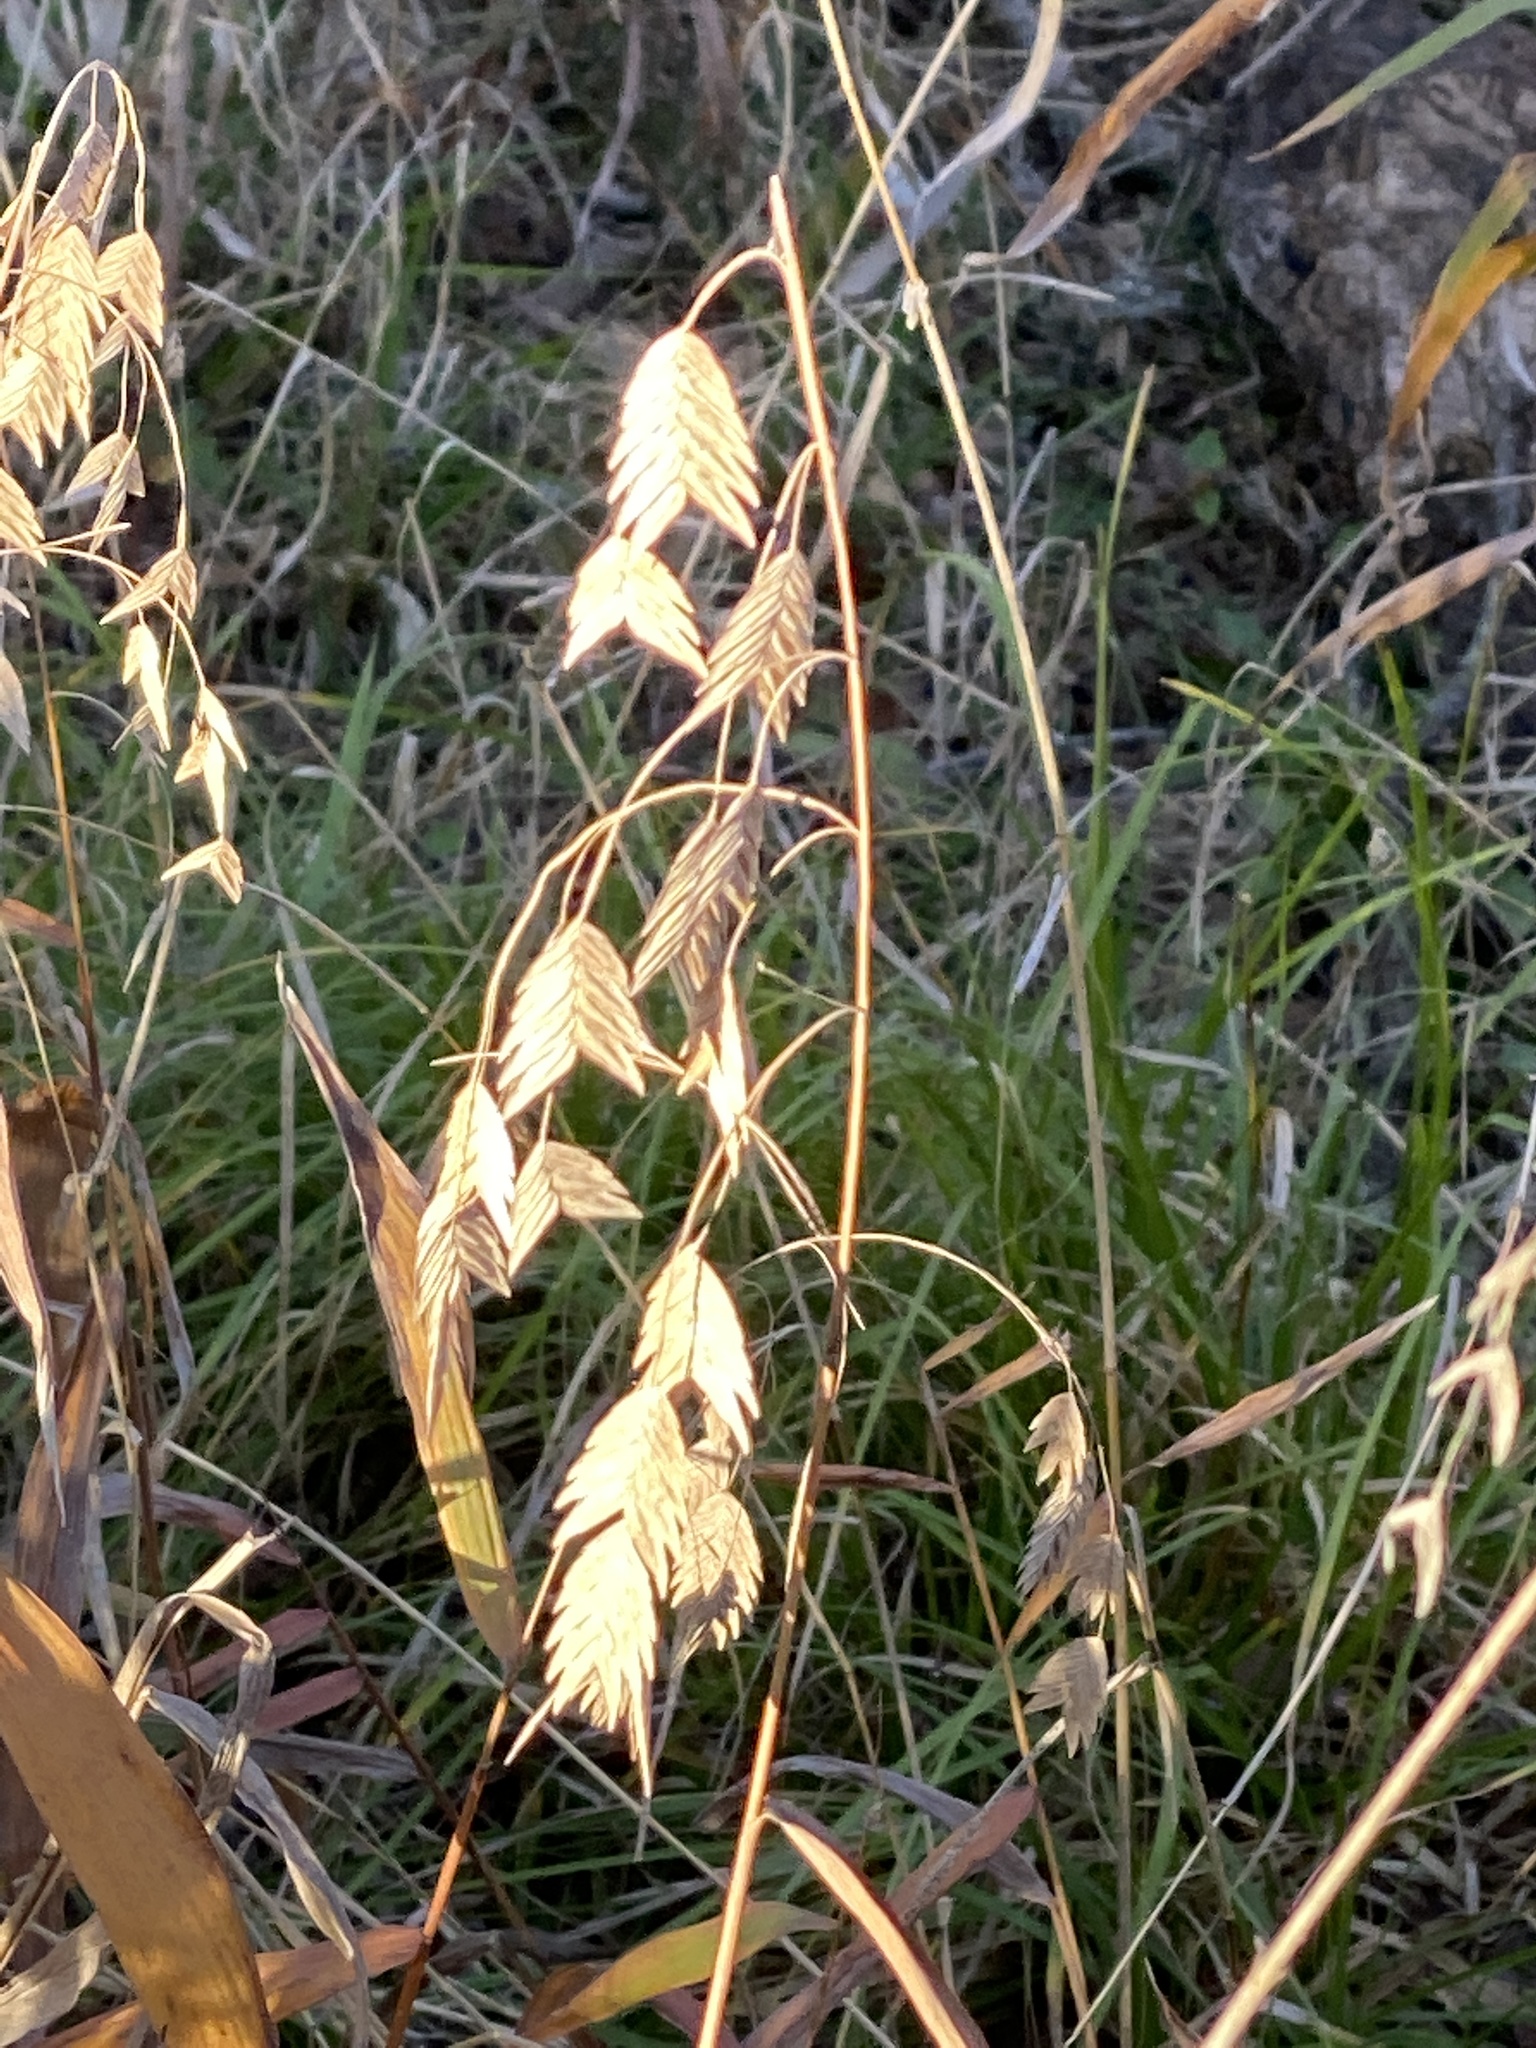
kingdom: Plantae
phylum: Tracheophyta
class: Liliopsida
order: Poales
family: Poaceae
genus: Chasmanthium
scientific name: Chasmanthium latifolium
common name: Broad-leaved chasmanthium
